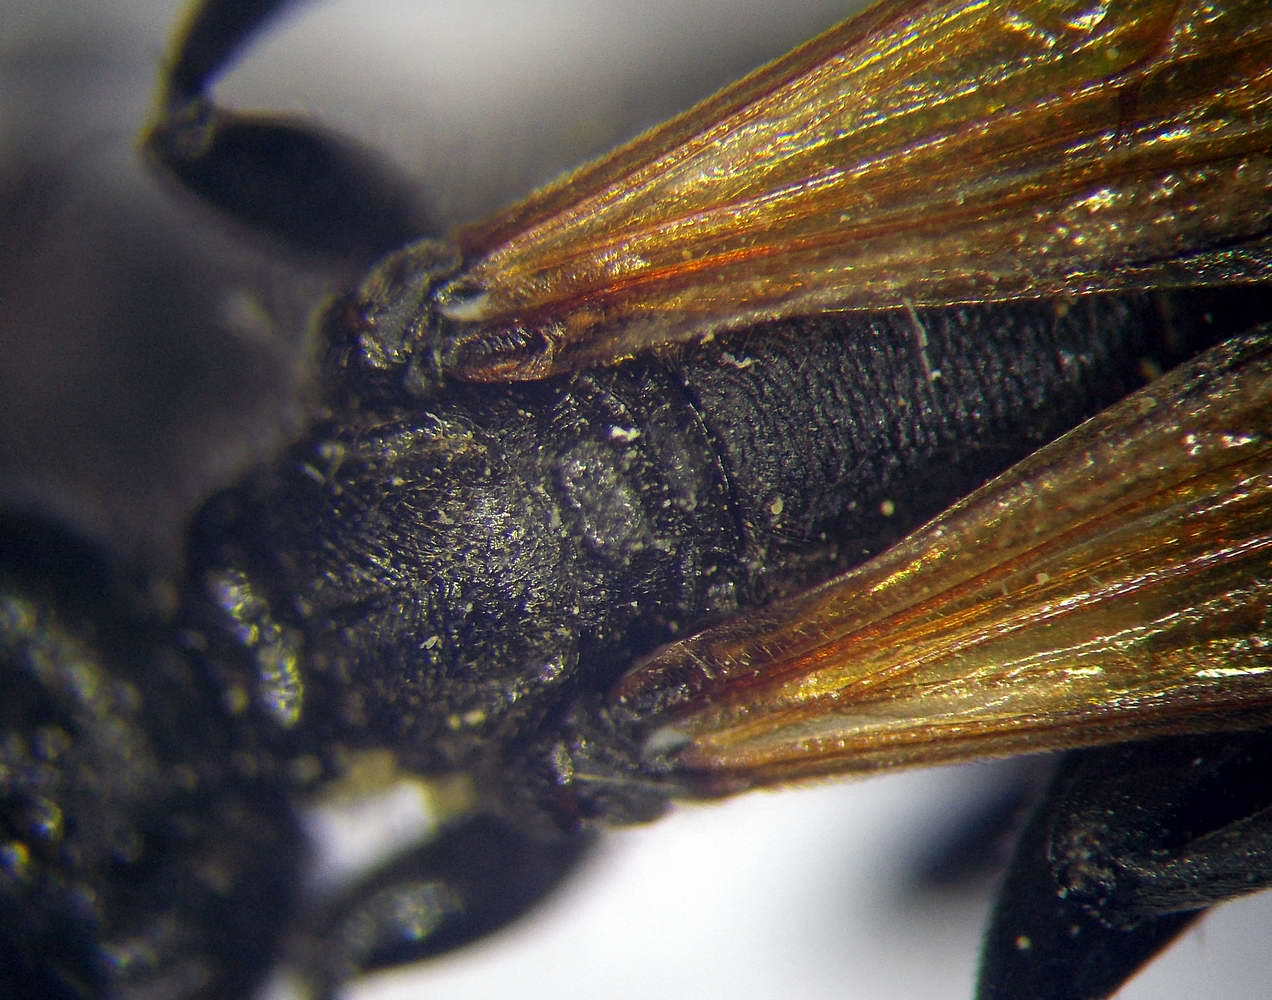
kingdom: Animalia
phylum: Arthropoda
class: Insecta
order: Hymenoptera
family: Sphecidae
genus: Prionyx
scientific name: Prionyx subfuscatus
